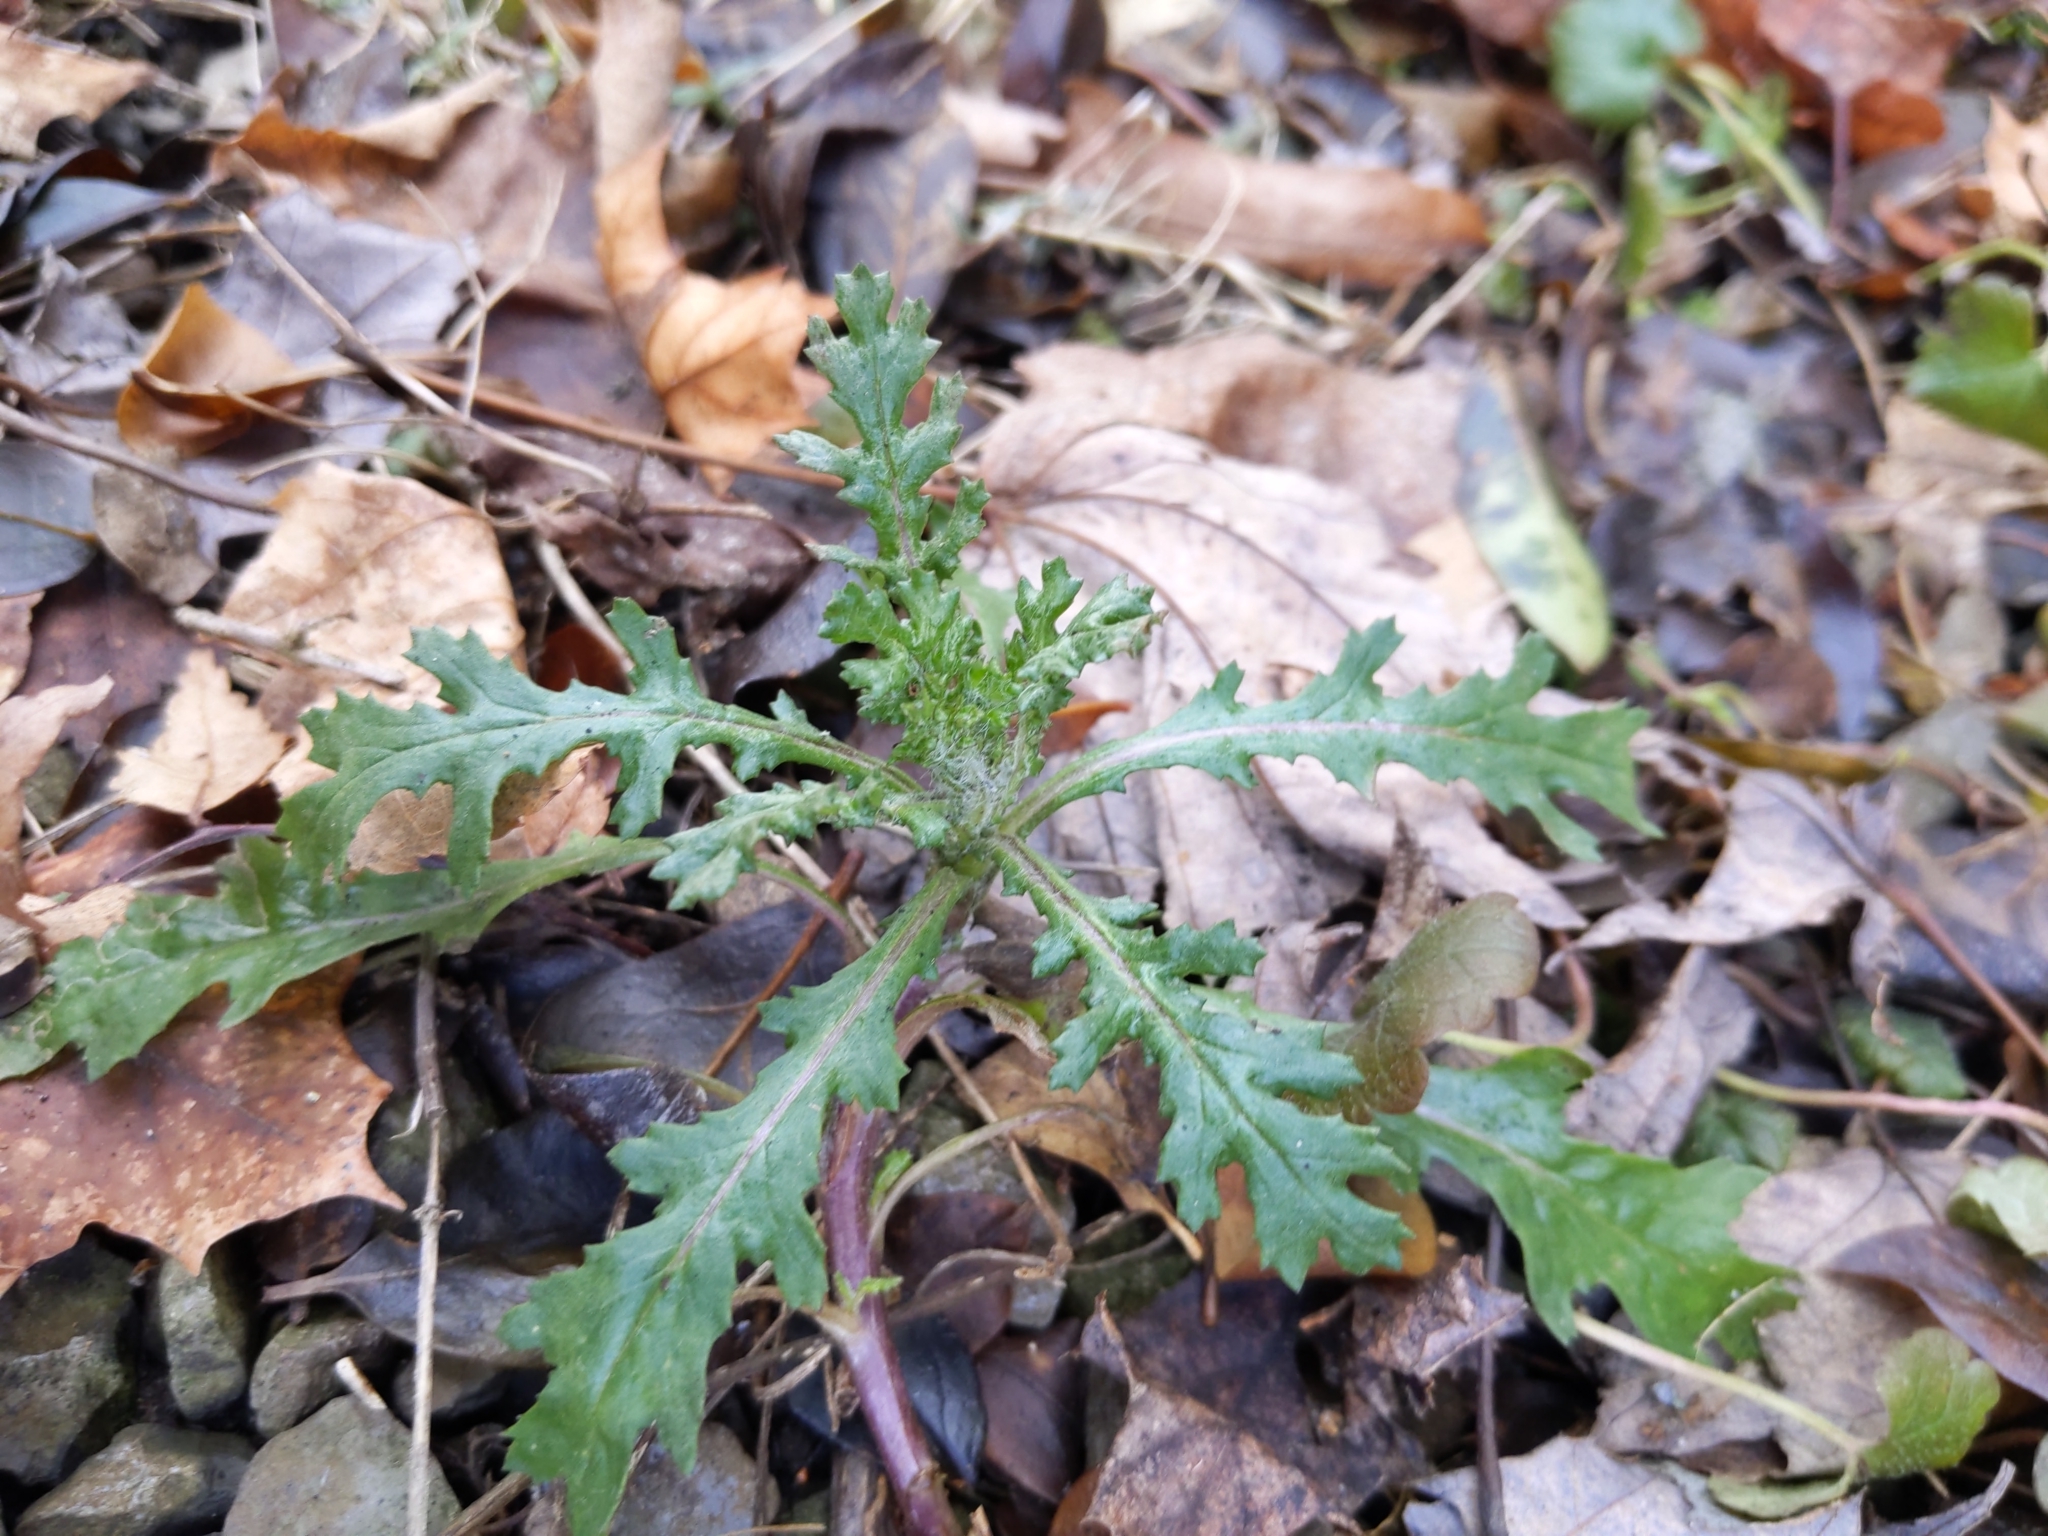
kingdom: Plantae
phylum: Tracheophyta
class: Magnoliopsida
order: Asterales
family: Asteraceae
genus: Senecio
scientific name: Senecio vulgaris
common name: Old-man-in-the-spring
